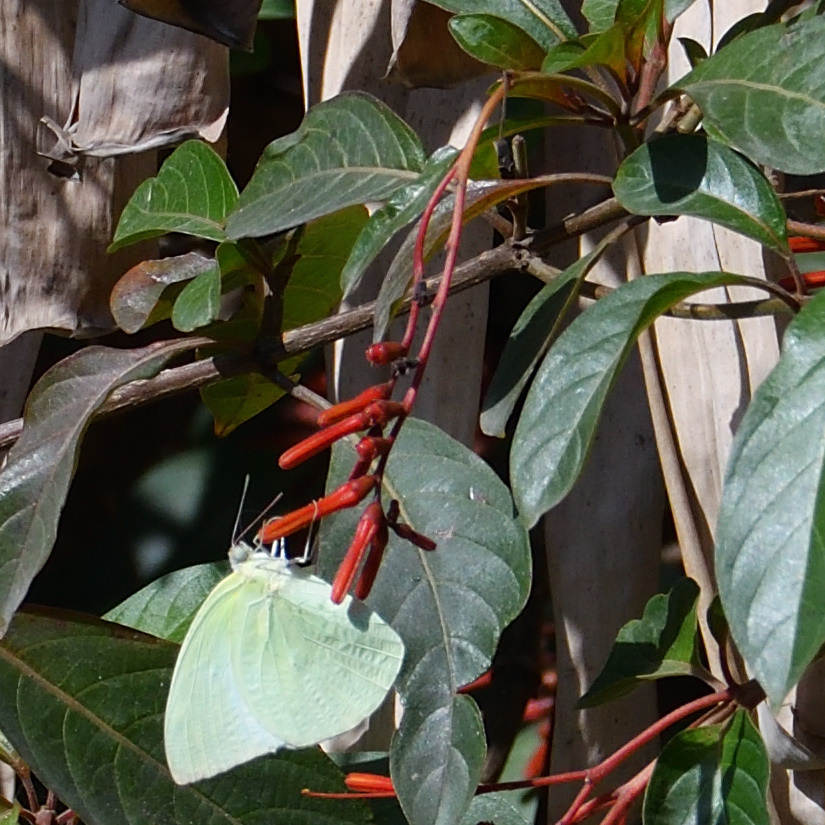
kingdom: Animalia
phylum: Arthropoda
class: Insecta
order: Lepidoptera
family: Pieridae
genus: Catopsilia
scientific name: Catopsilia pomona
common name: Common emigrant
